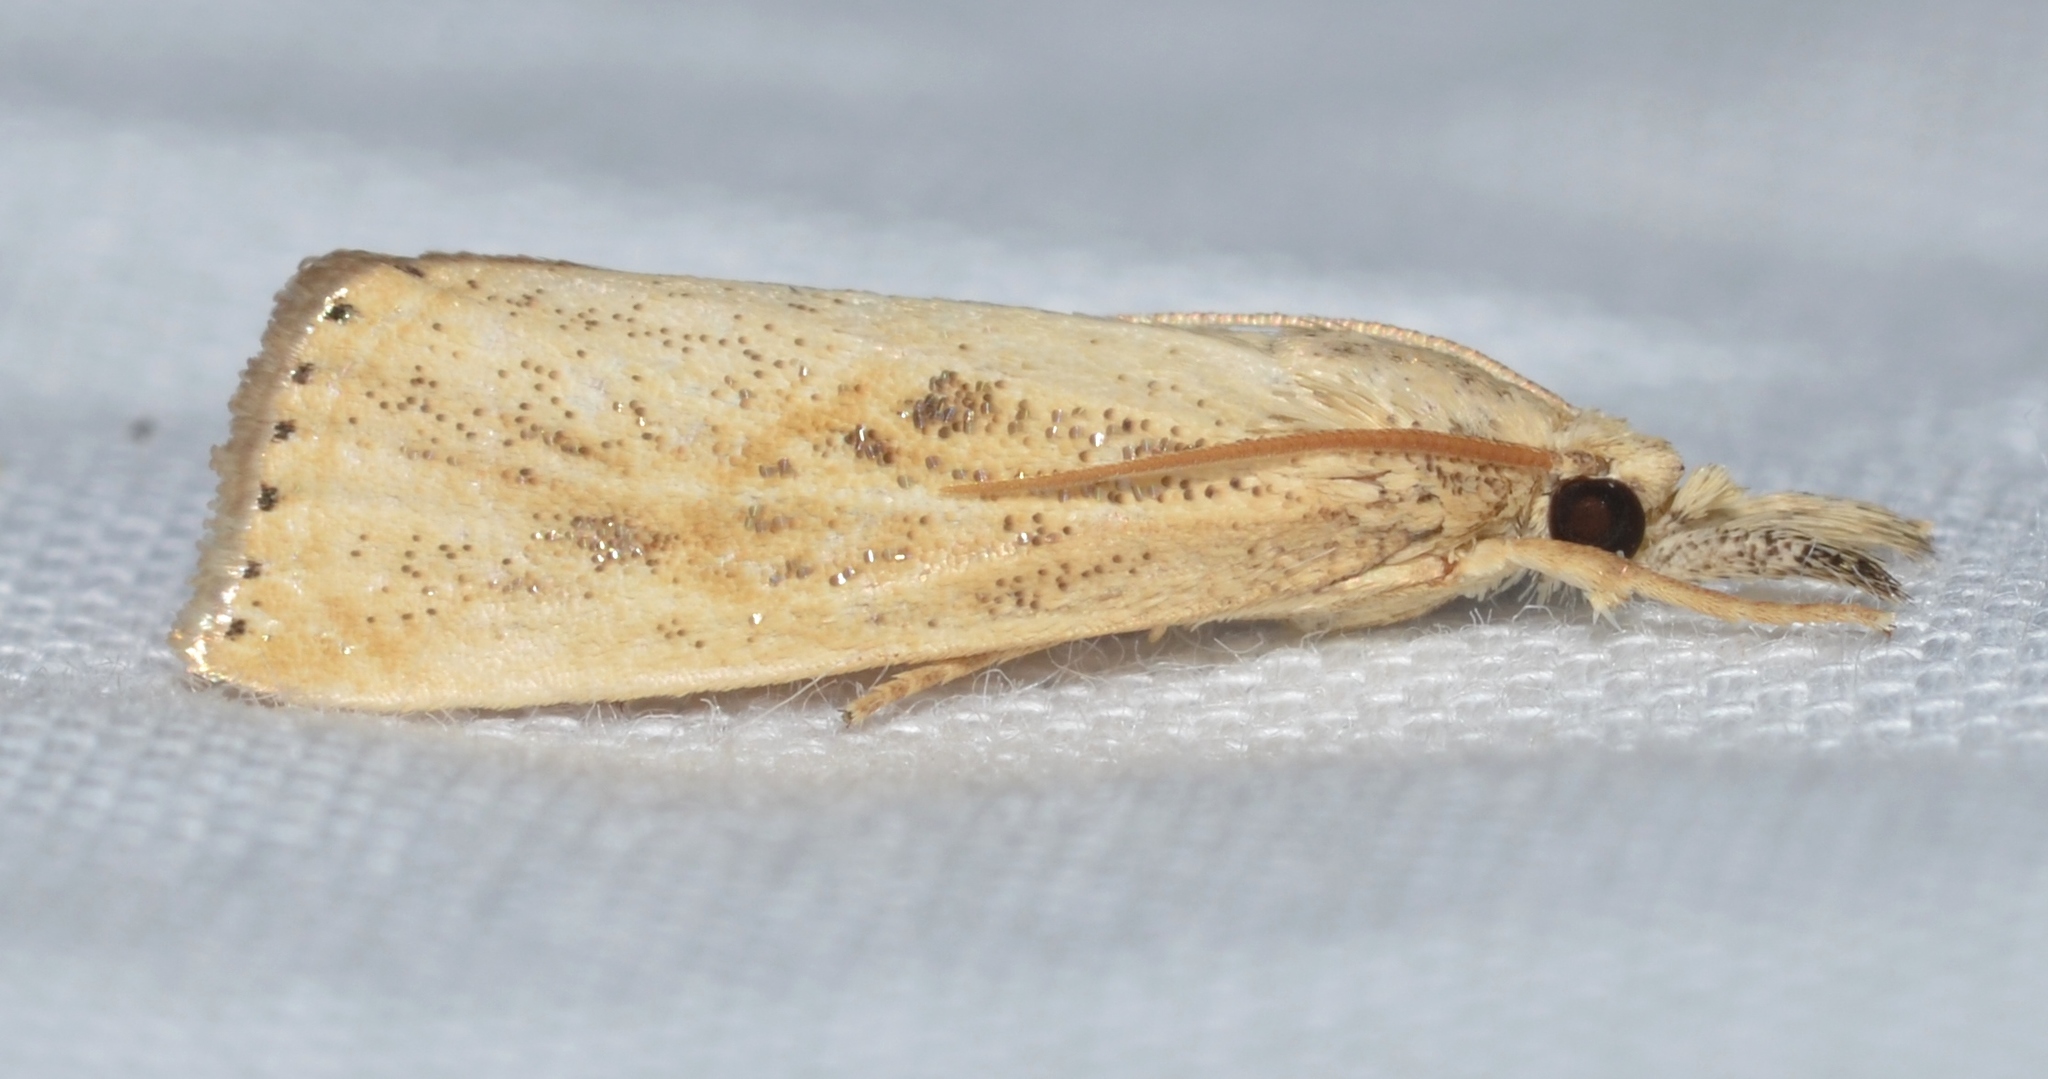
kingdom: Animalia
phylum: Arthropoda
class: Insecta
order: Lepidoptera
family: Crambidae
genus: Agriphila
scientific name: Agriphila ruricolellus
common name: Lesser vagabond sod webworm
